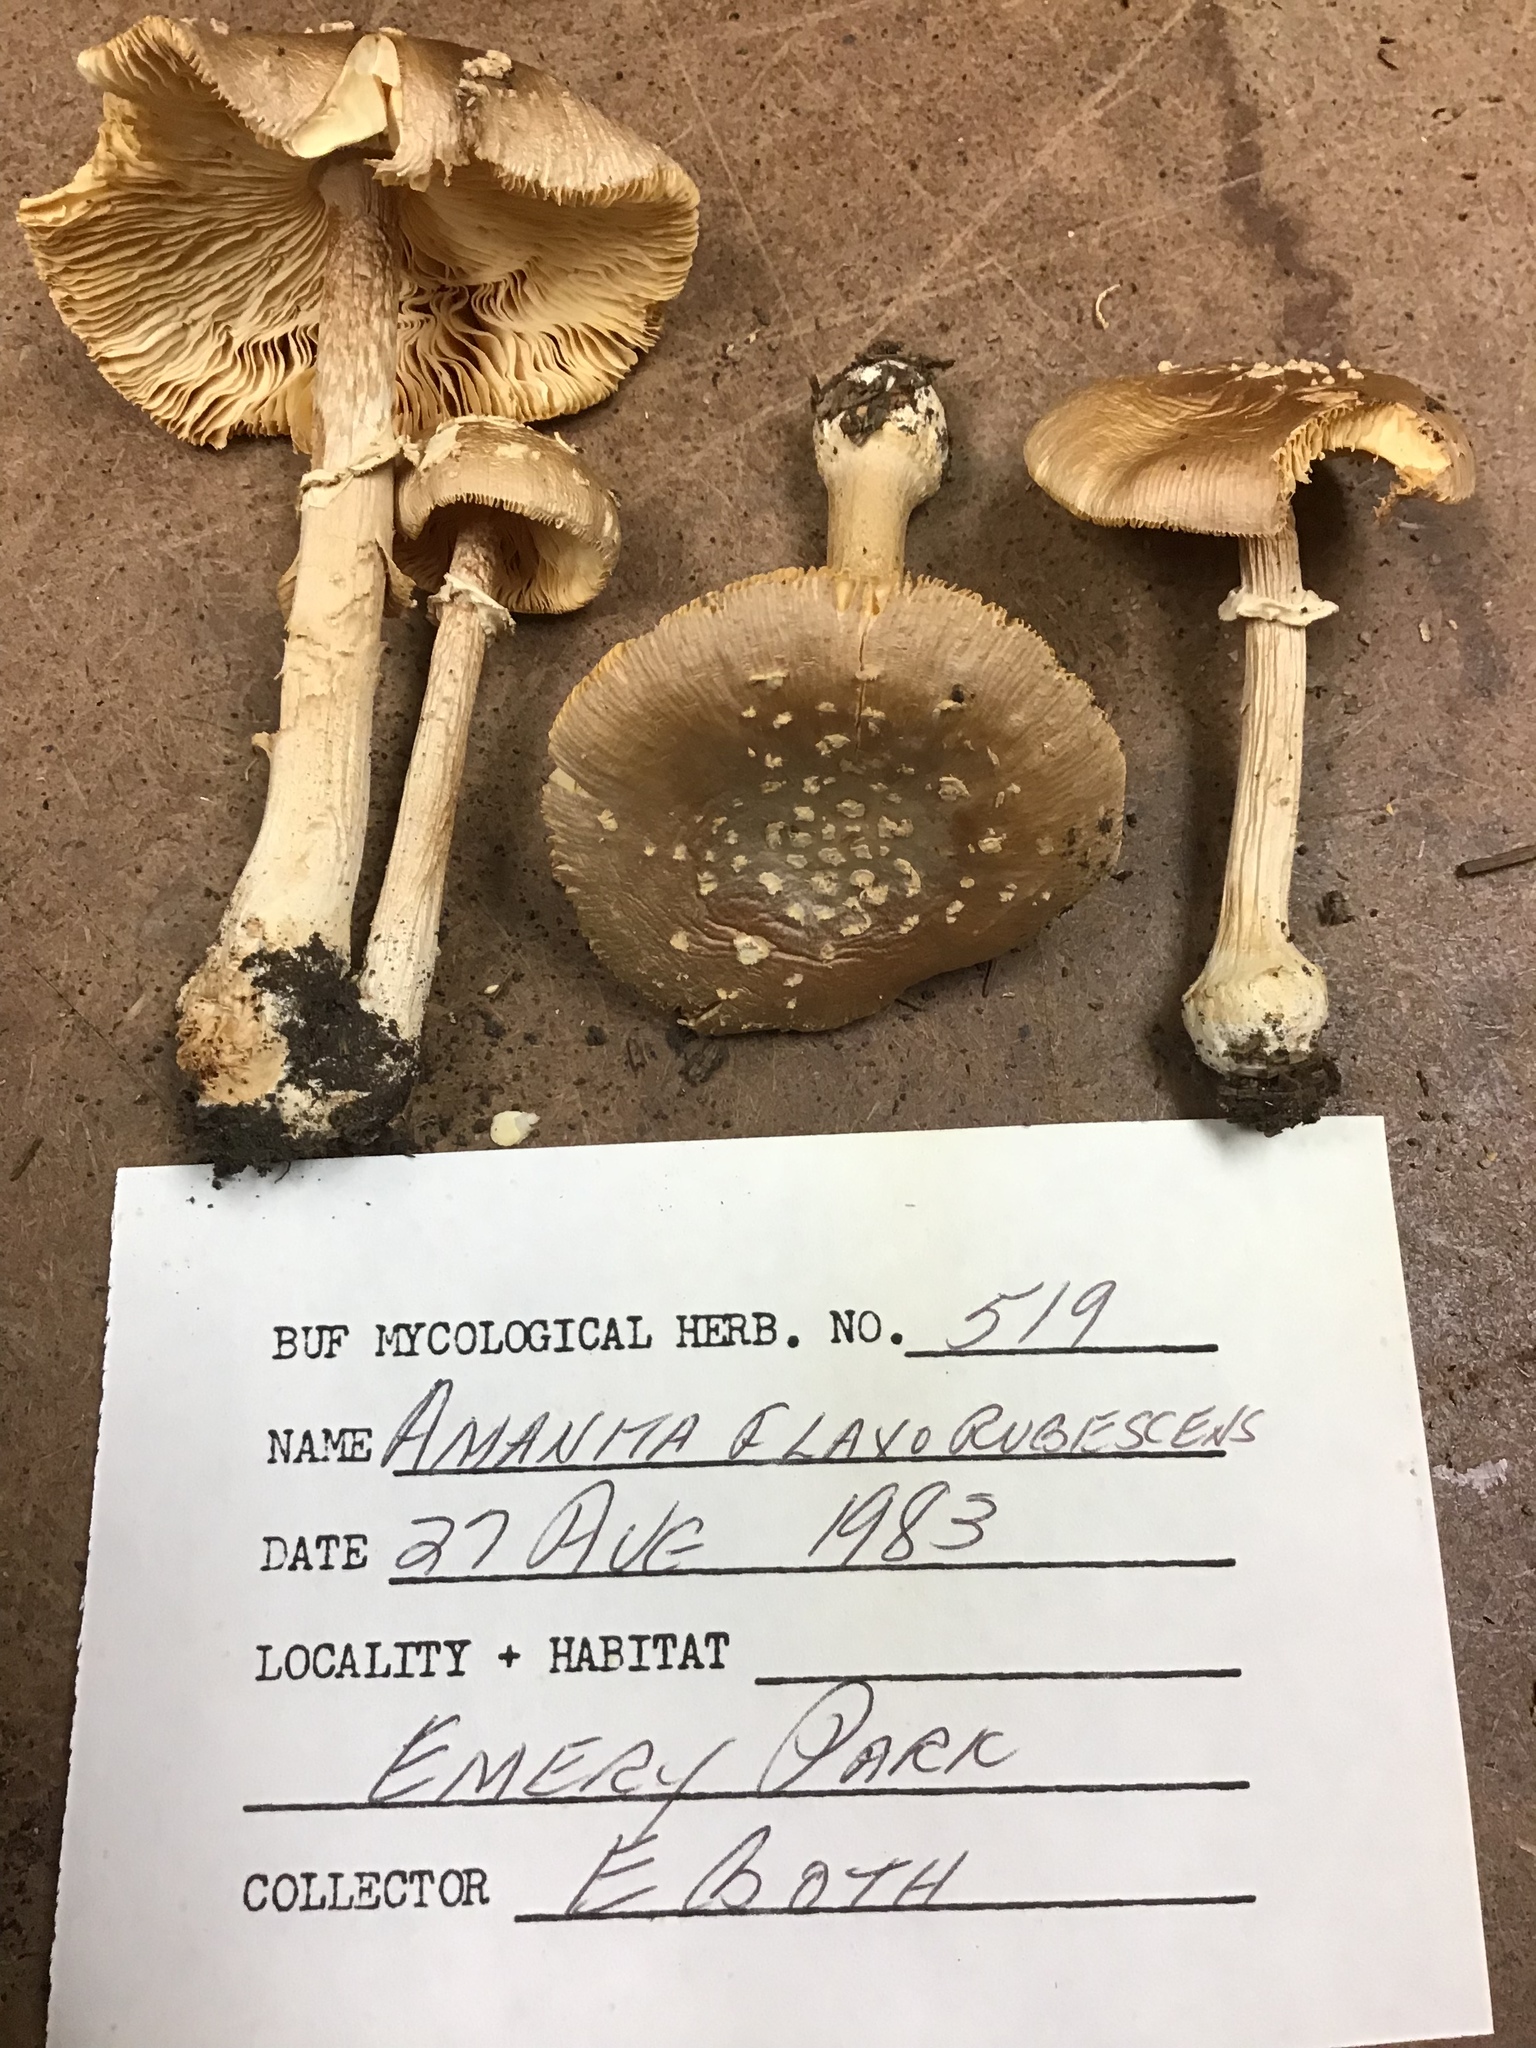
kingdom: Fungi
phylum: Basidiomycota
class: Agaricomycetes
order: Agaricales
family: Amanitaceae
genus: Amanita
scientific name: Amanita flavorubens
